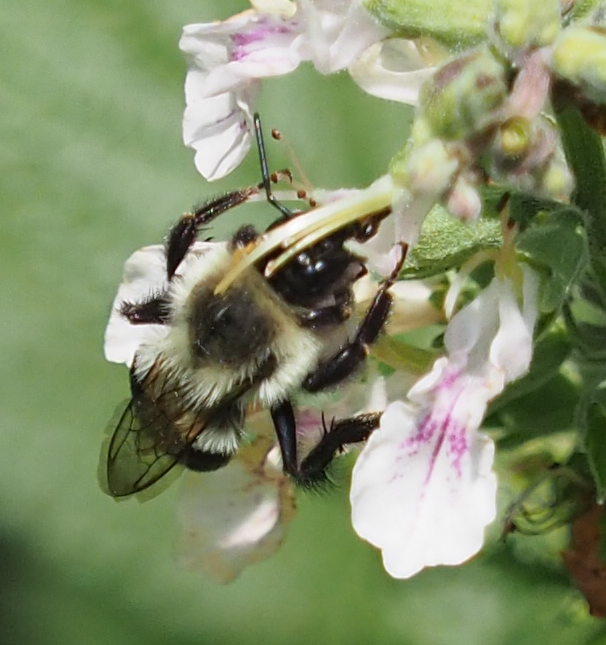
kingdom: Animalia
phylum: Arthropoda
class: Insecta
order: Hymenoptera
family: Apidae
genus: Bombus
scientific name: Bombus impatiens
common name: Common eastern bumble bee
